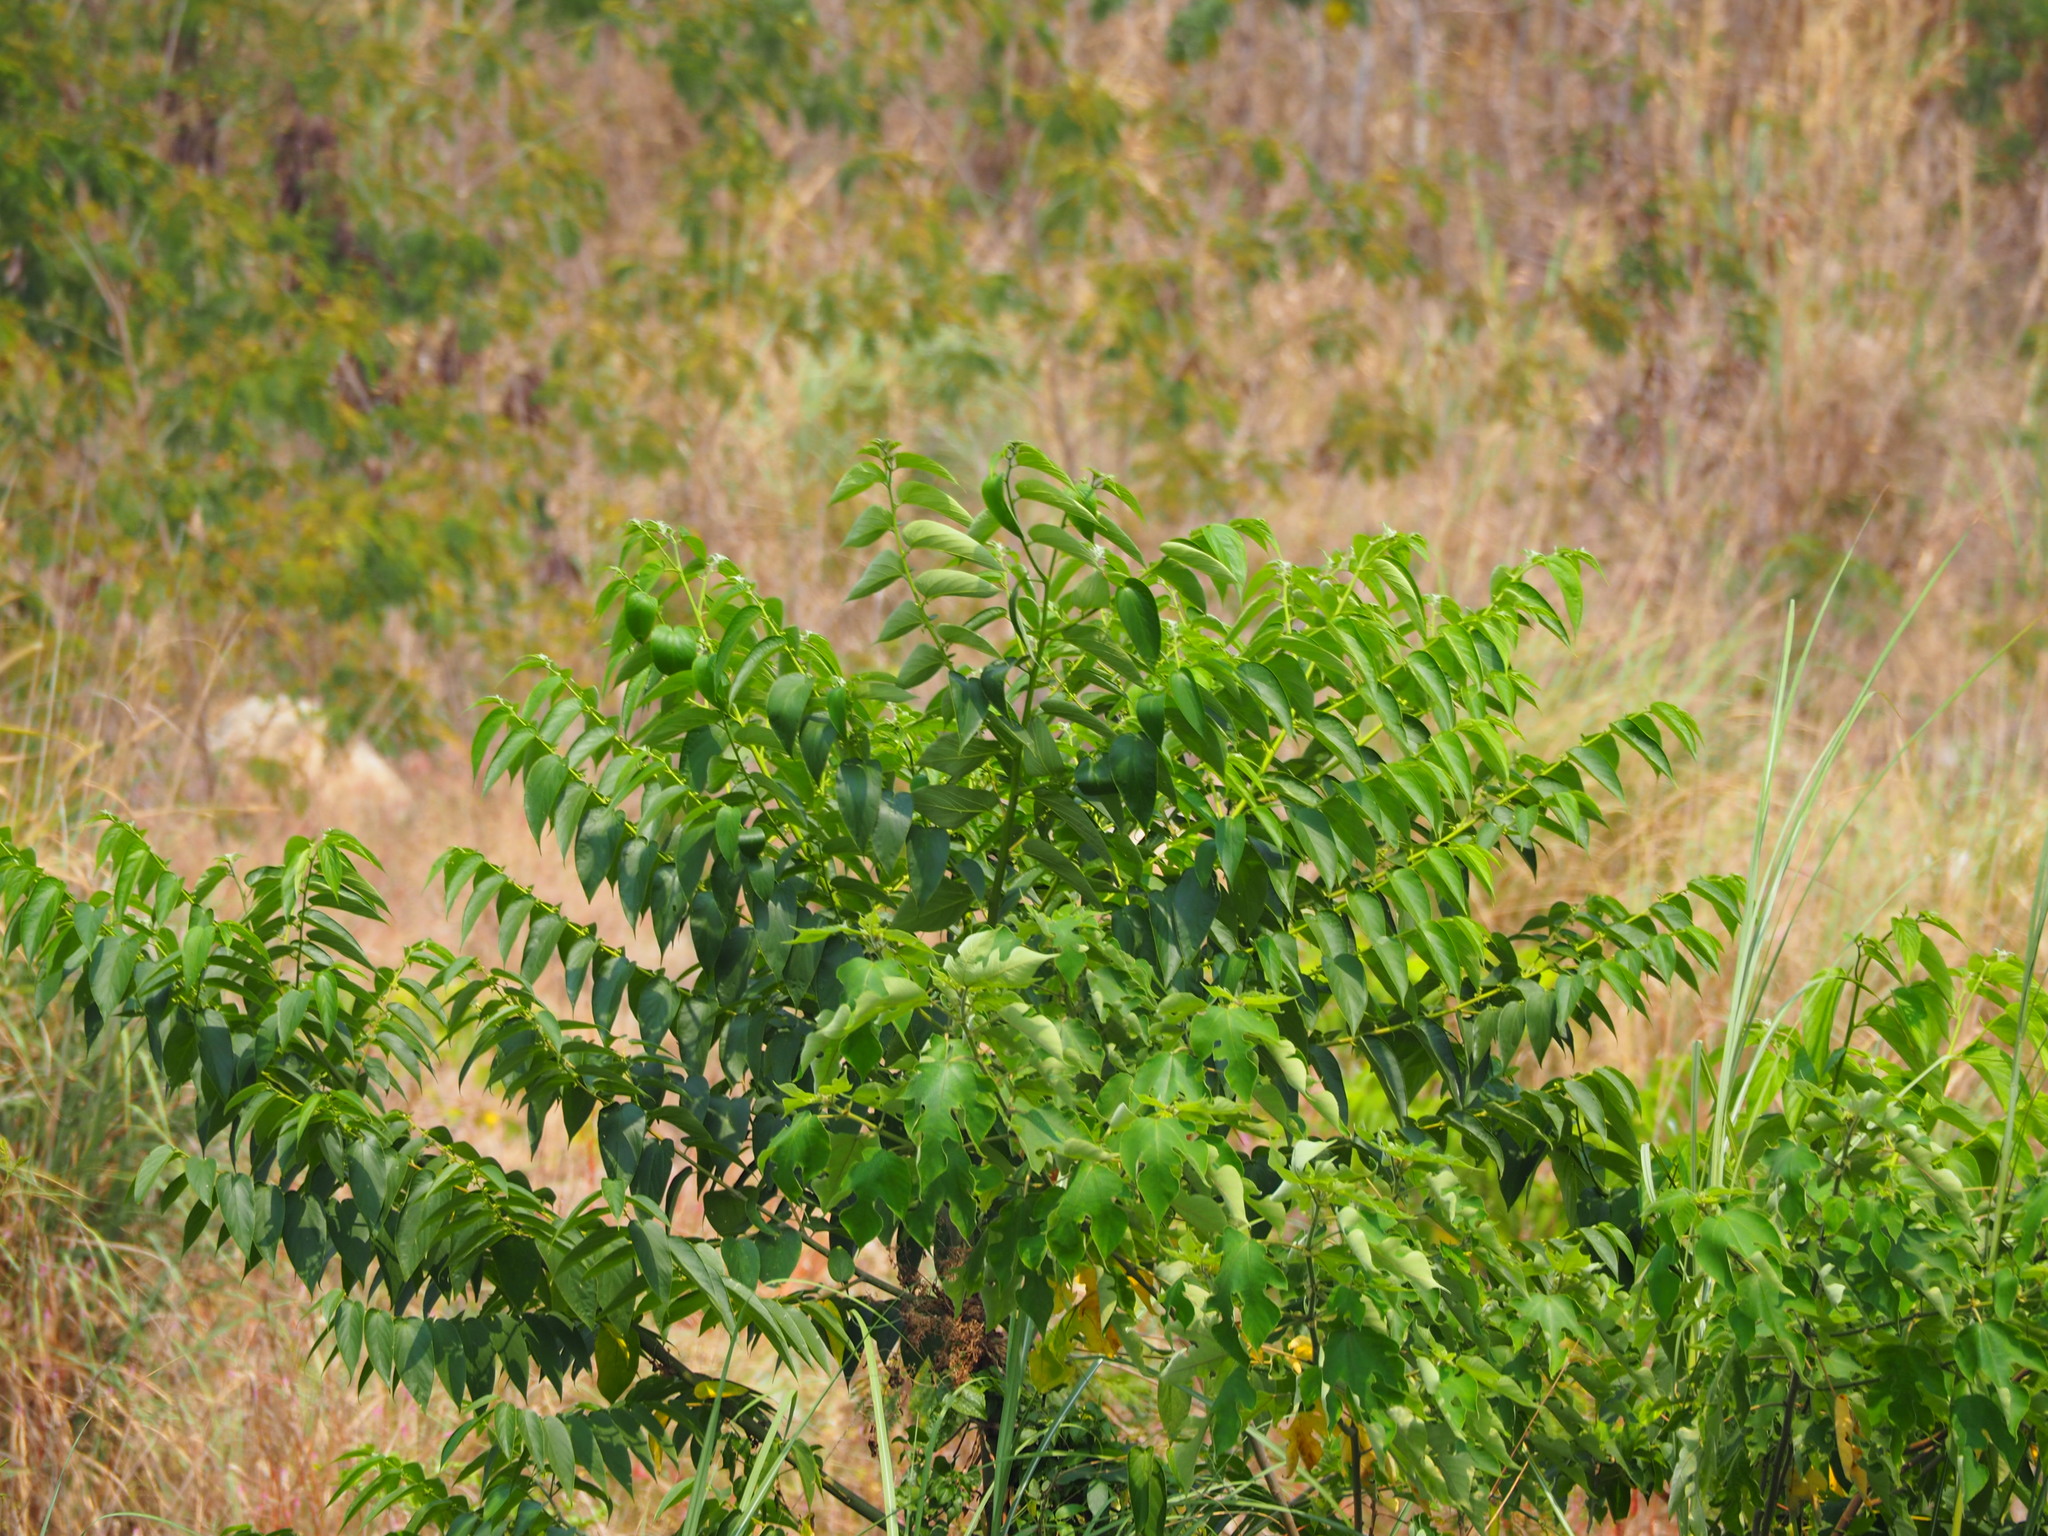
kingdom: Plantae
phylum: Tracheophyta
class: Magnoliopsida
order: Rosales
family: Cannabaceae
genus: Trema
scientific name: Trema orientale
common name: Indian charcoal tree
